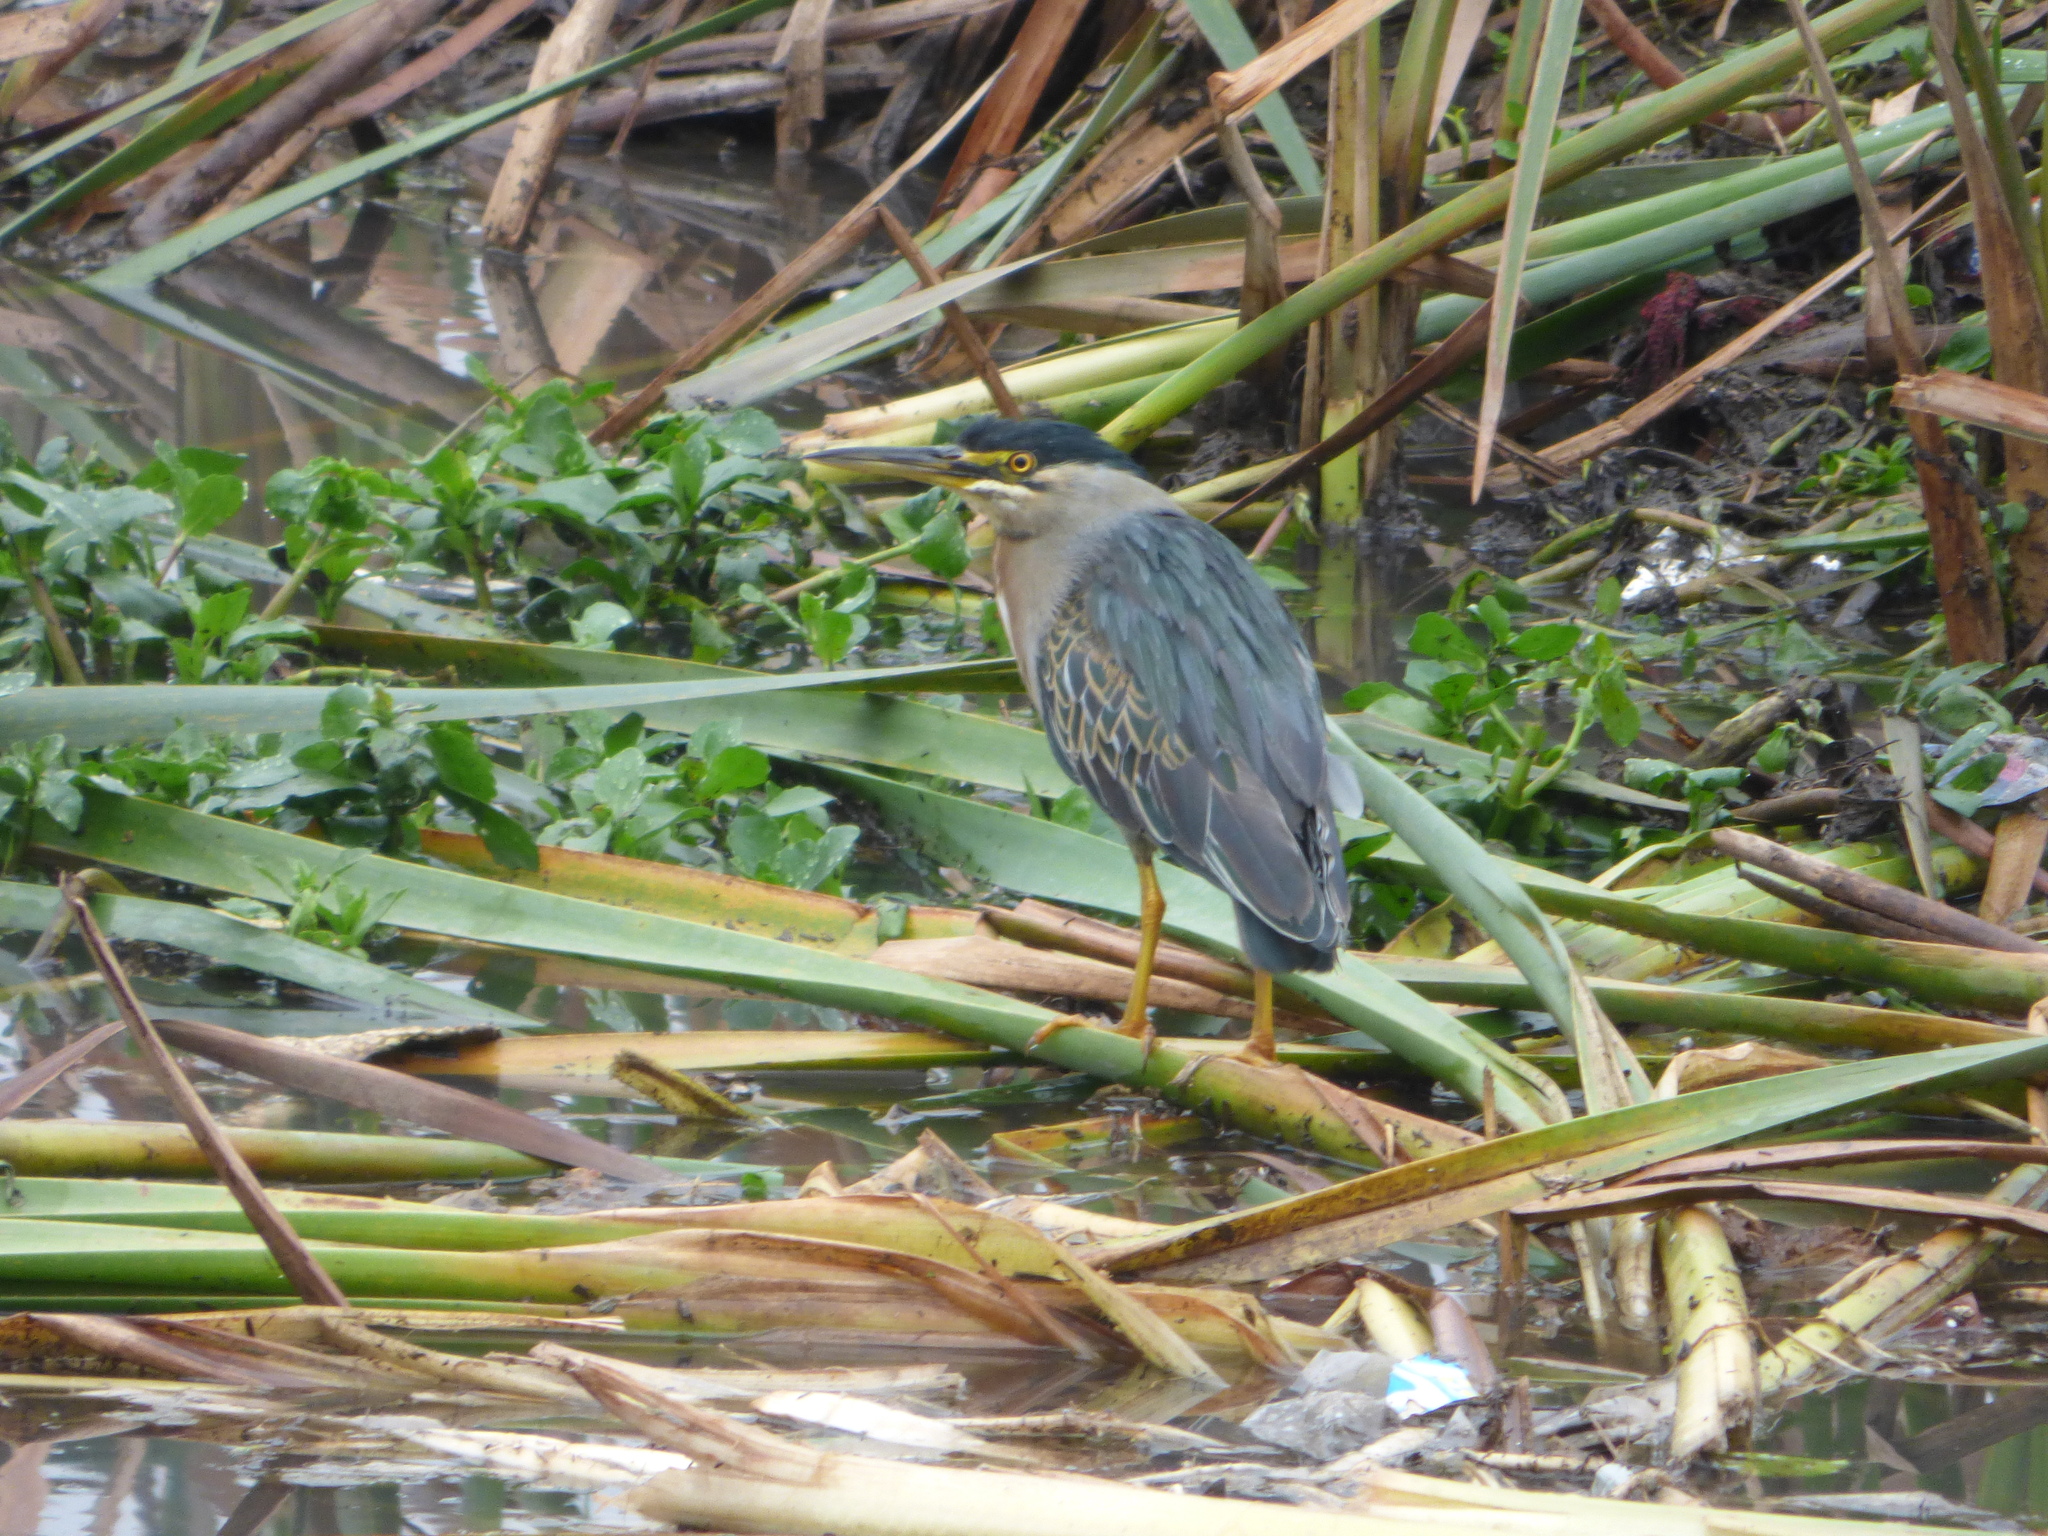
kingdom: Animalia
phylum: Chordata
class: Aves
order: Pelecaniformes
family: Ardeidae
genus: Butorides
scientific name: Butorides striata
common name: Striated heron
